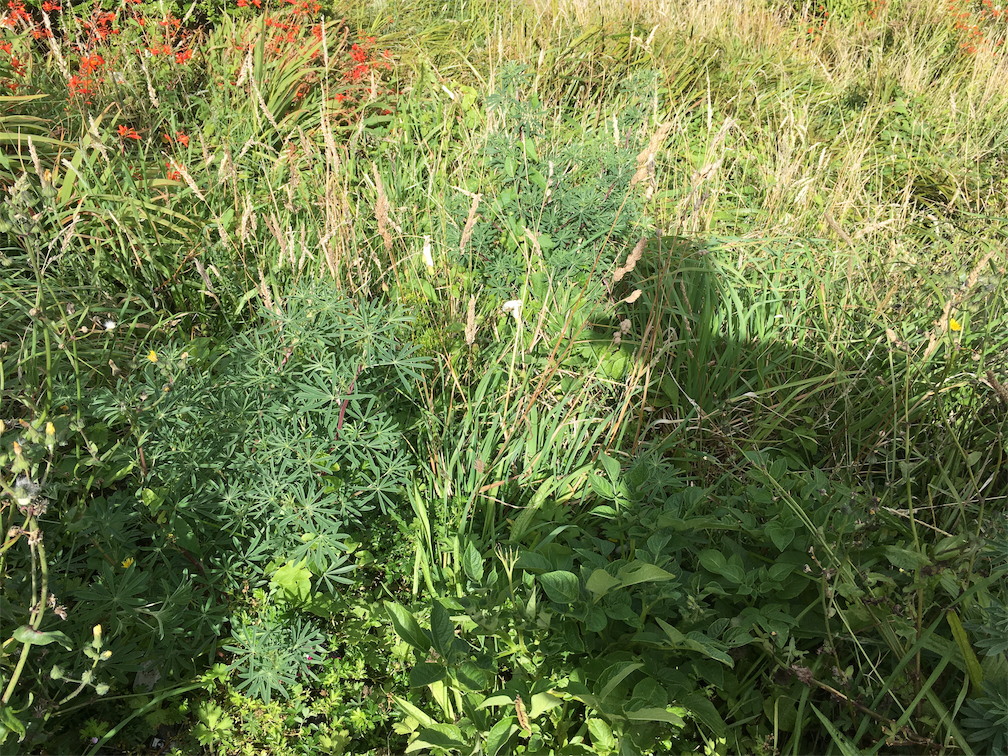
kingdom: Plantae
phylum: Tracheophyta
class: Magnoliopsida
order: Fabales
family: Fabaceae
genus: Lupinus
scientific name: Lupinus arboreus
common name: Yellow bush lupine
